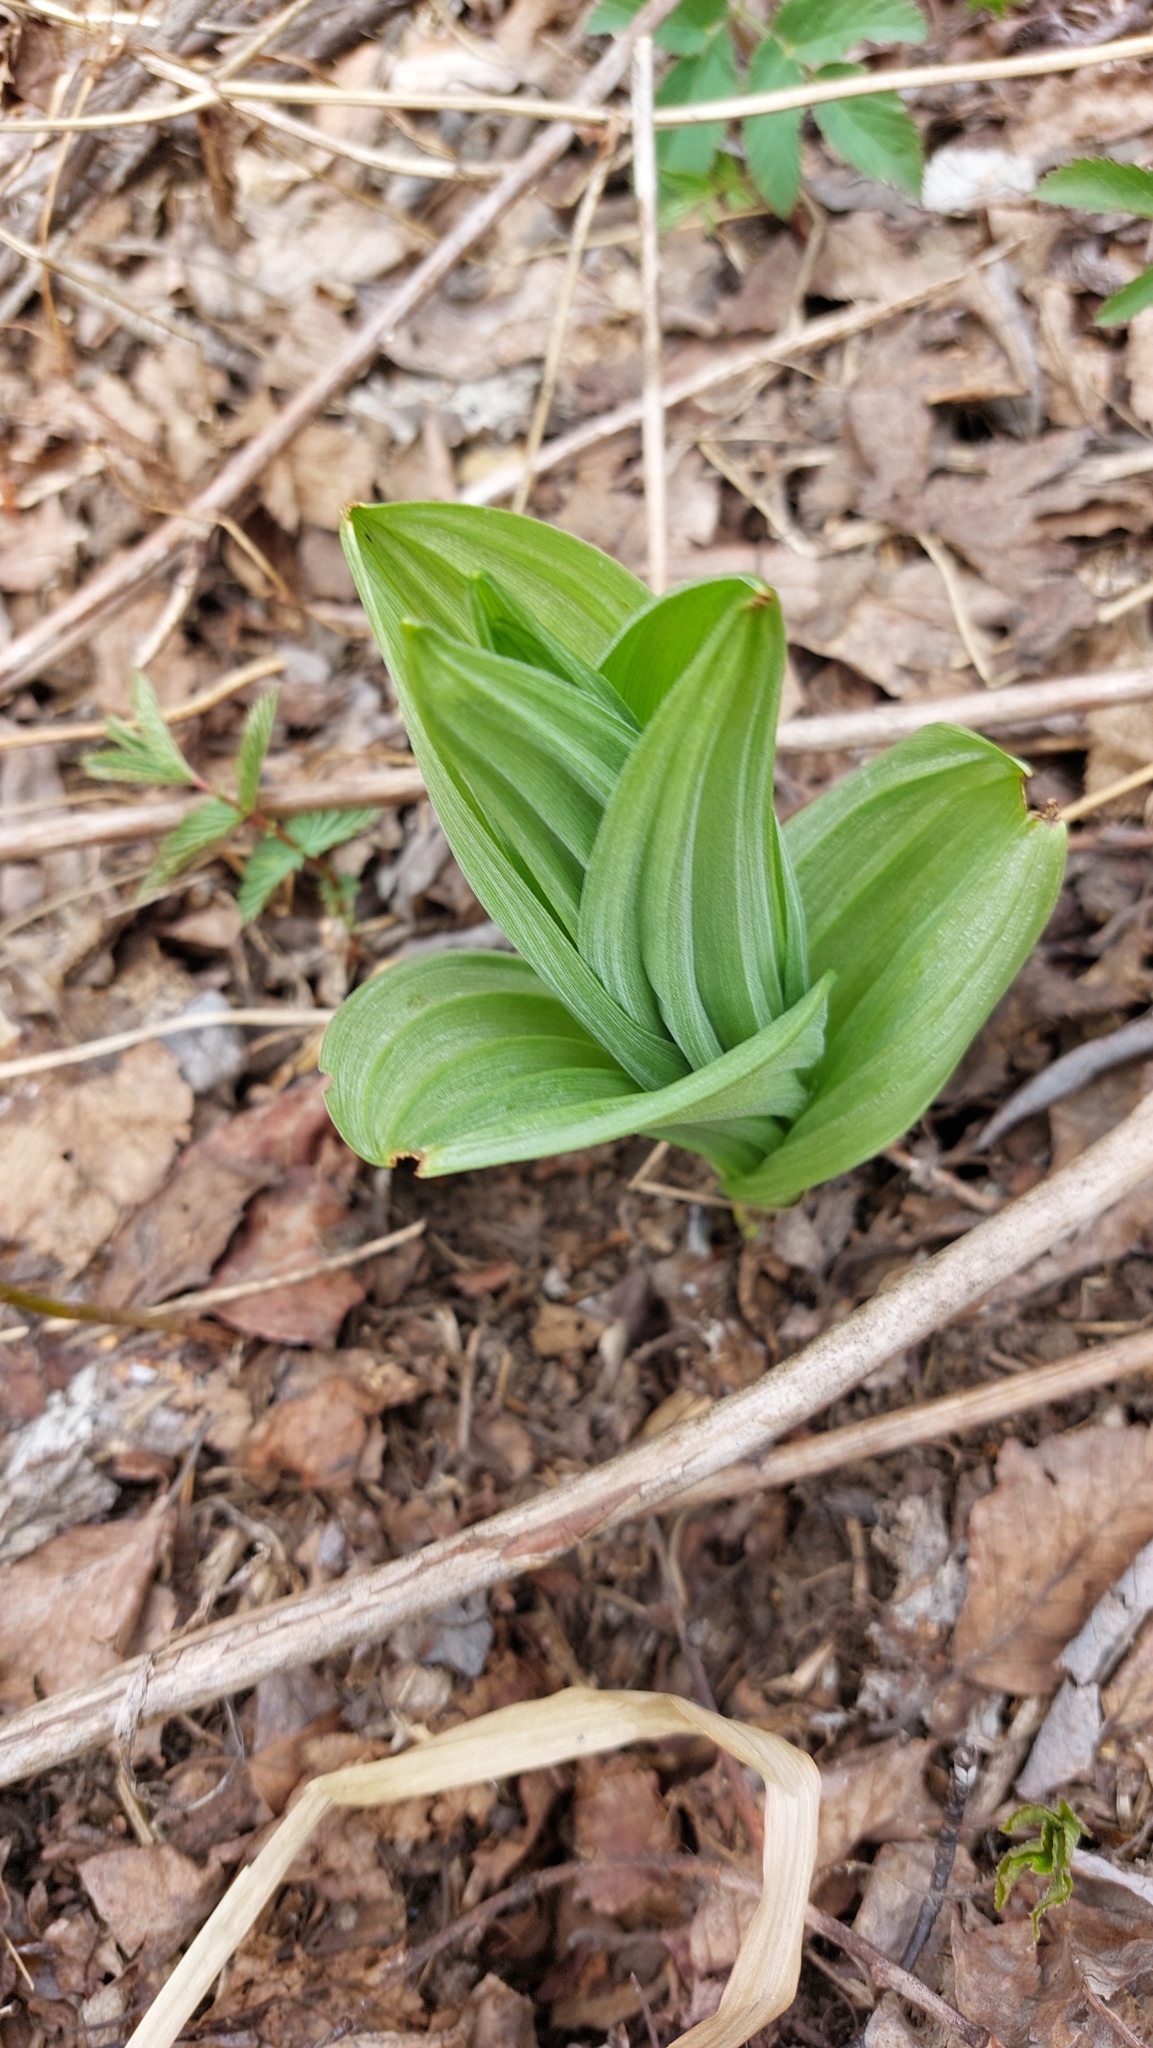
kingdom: Plantae
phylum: Tracheophyta
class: Liliopsida
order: Liliales
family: Melanthiaceae
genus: Veratrum
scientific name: Veratrum lobelianum
